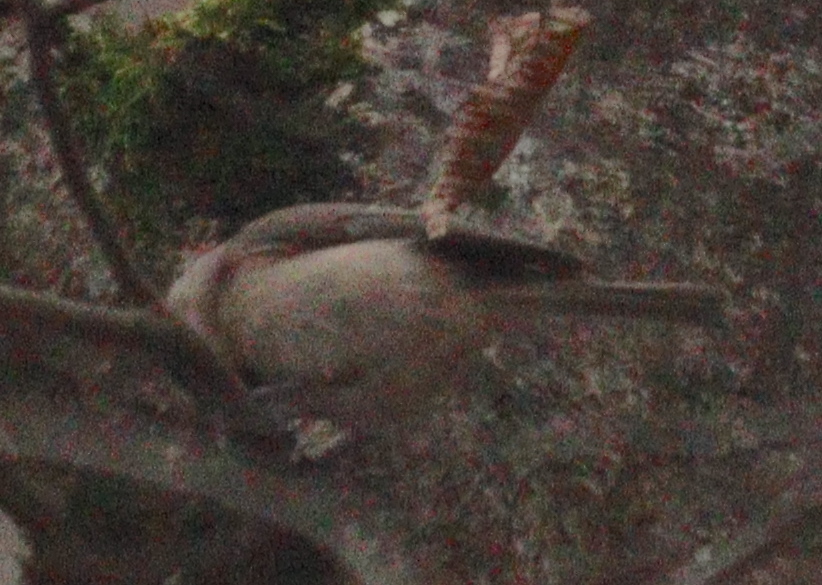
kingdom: Animalia
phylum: Chordata
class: Aves
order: Passeriformes
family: Paridae
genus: Poecile
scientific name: Poecile palustris
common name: Marsh tit
